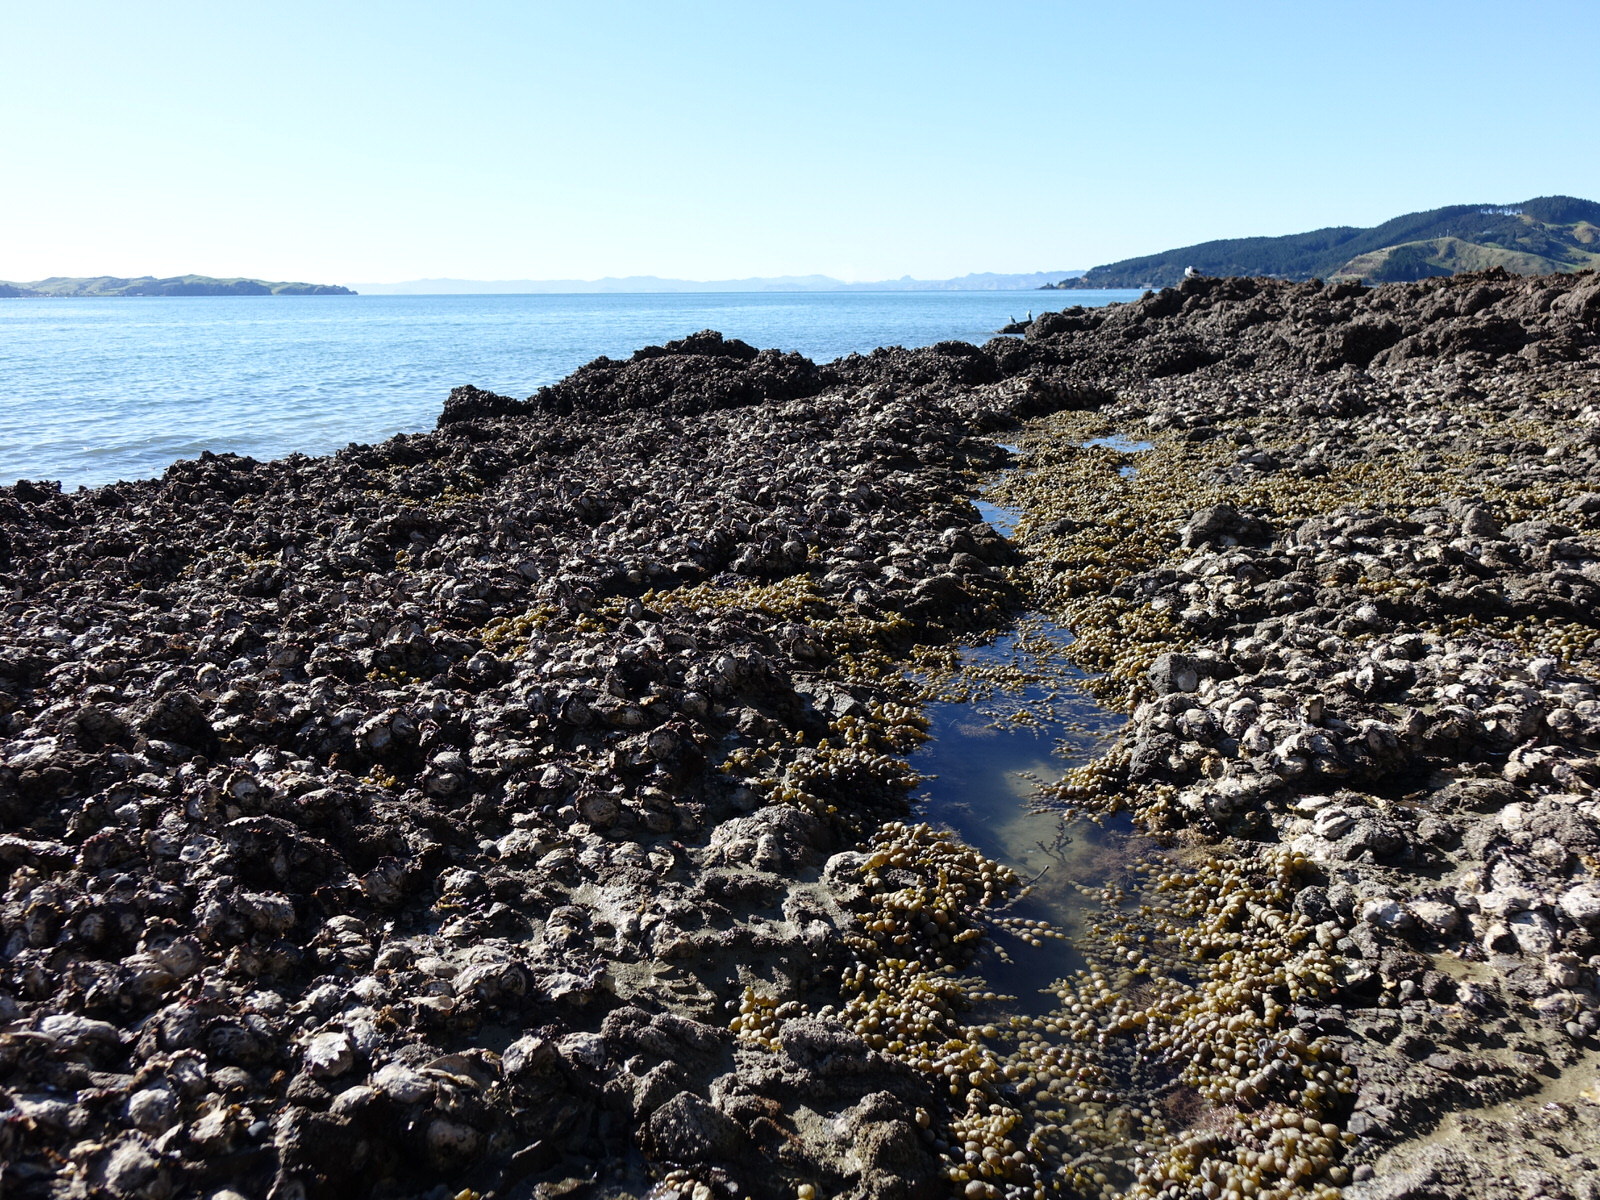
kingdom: Animalia
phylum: Annelida
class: Polychaeta
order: Sabellida
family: Sabellidae
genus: Sabella
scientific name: Sabella spallanzanii
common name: Feather duster worm
